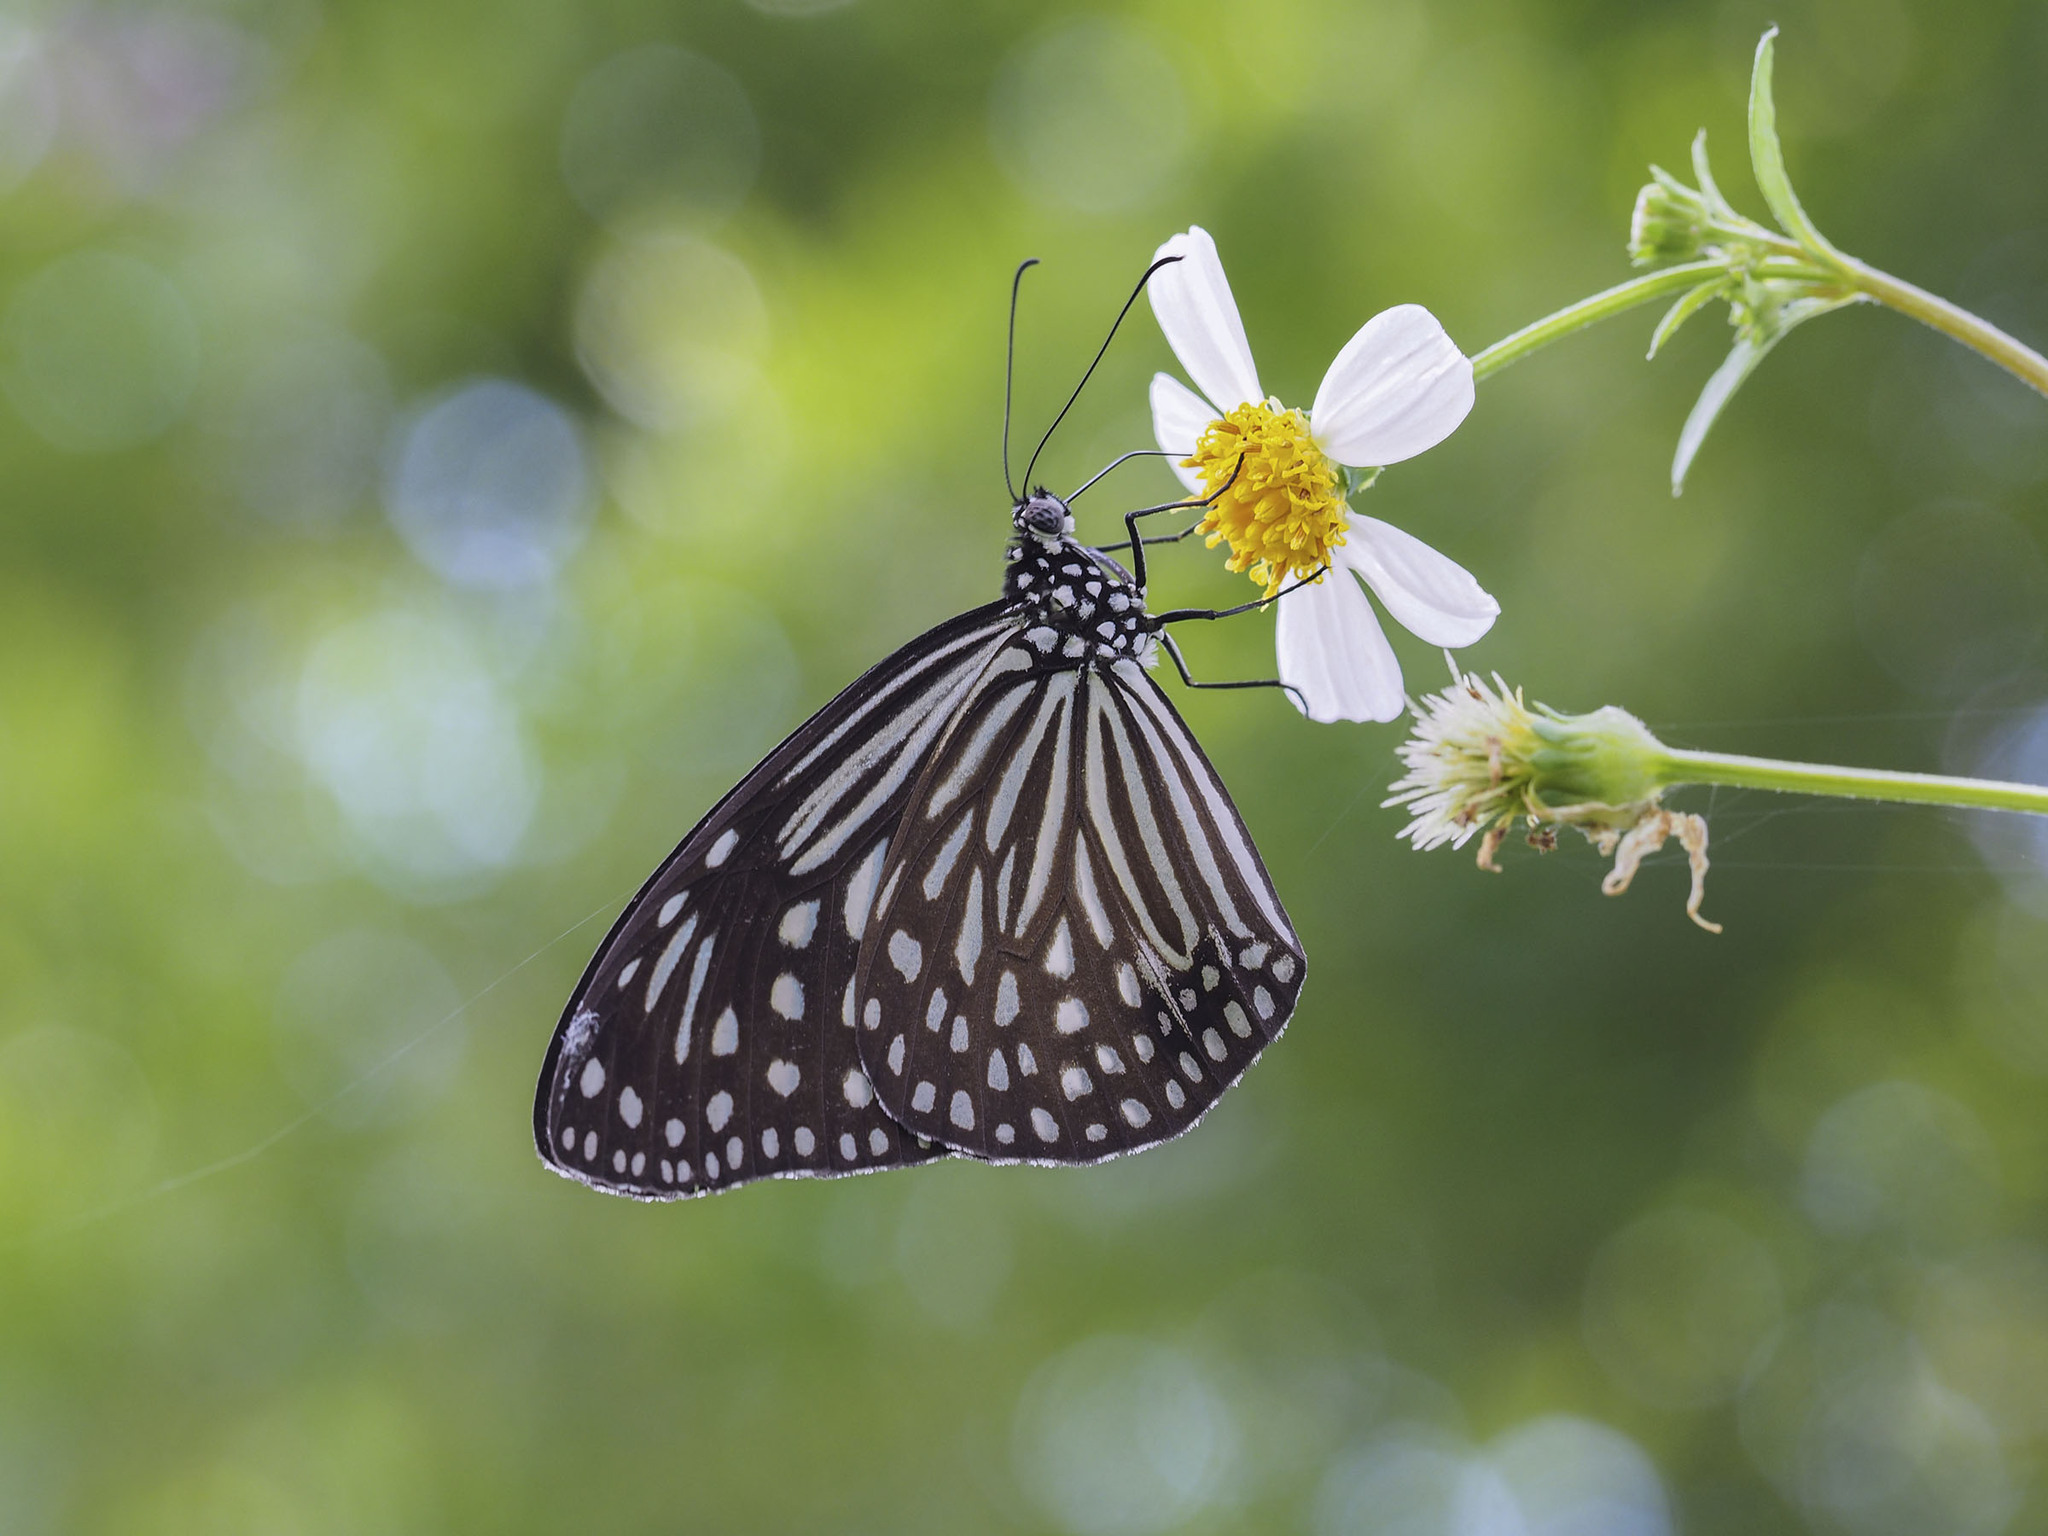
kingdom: Animalia
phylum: Arthropoda
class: Insecta
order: Lepidoptera
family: Nymphalidae
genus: Parantica
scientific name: Parantica agleoides
